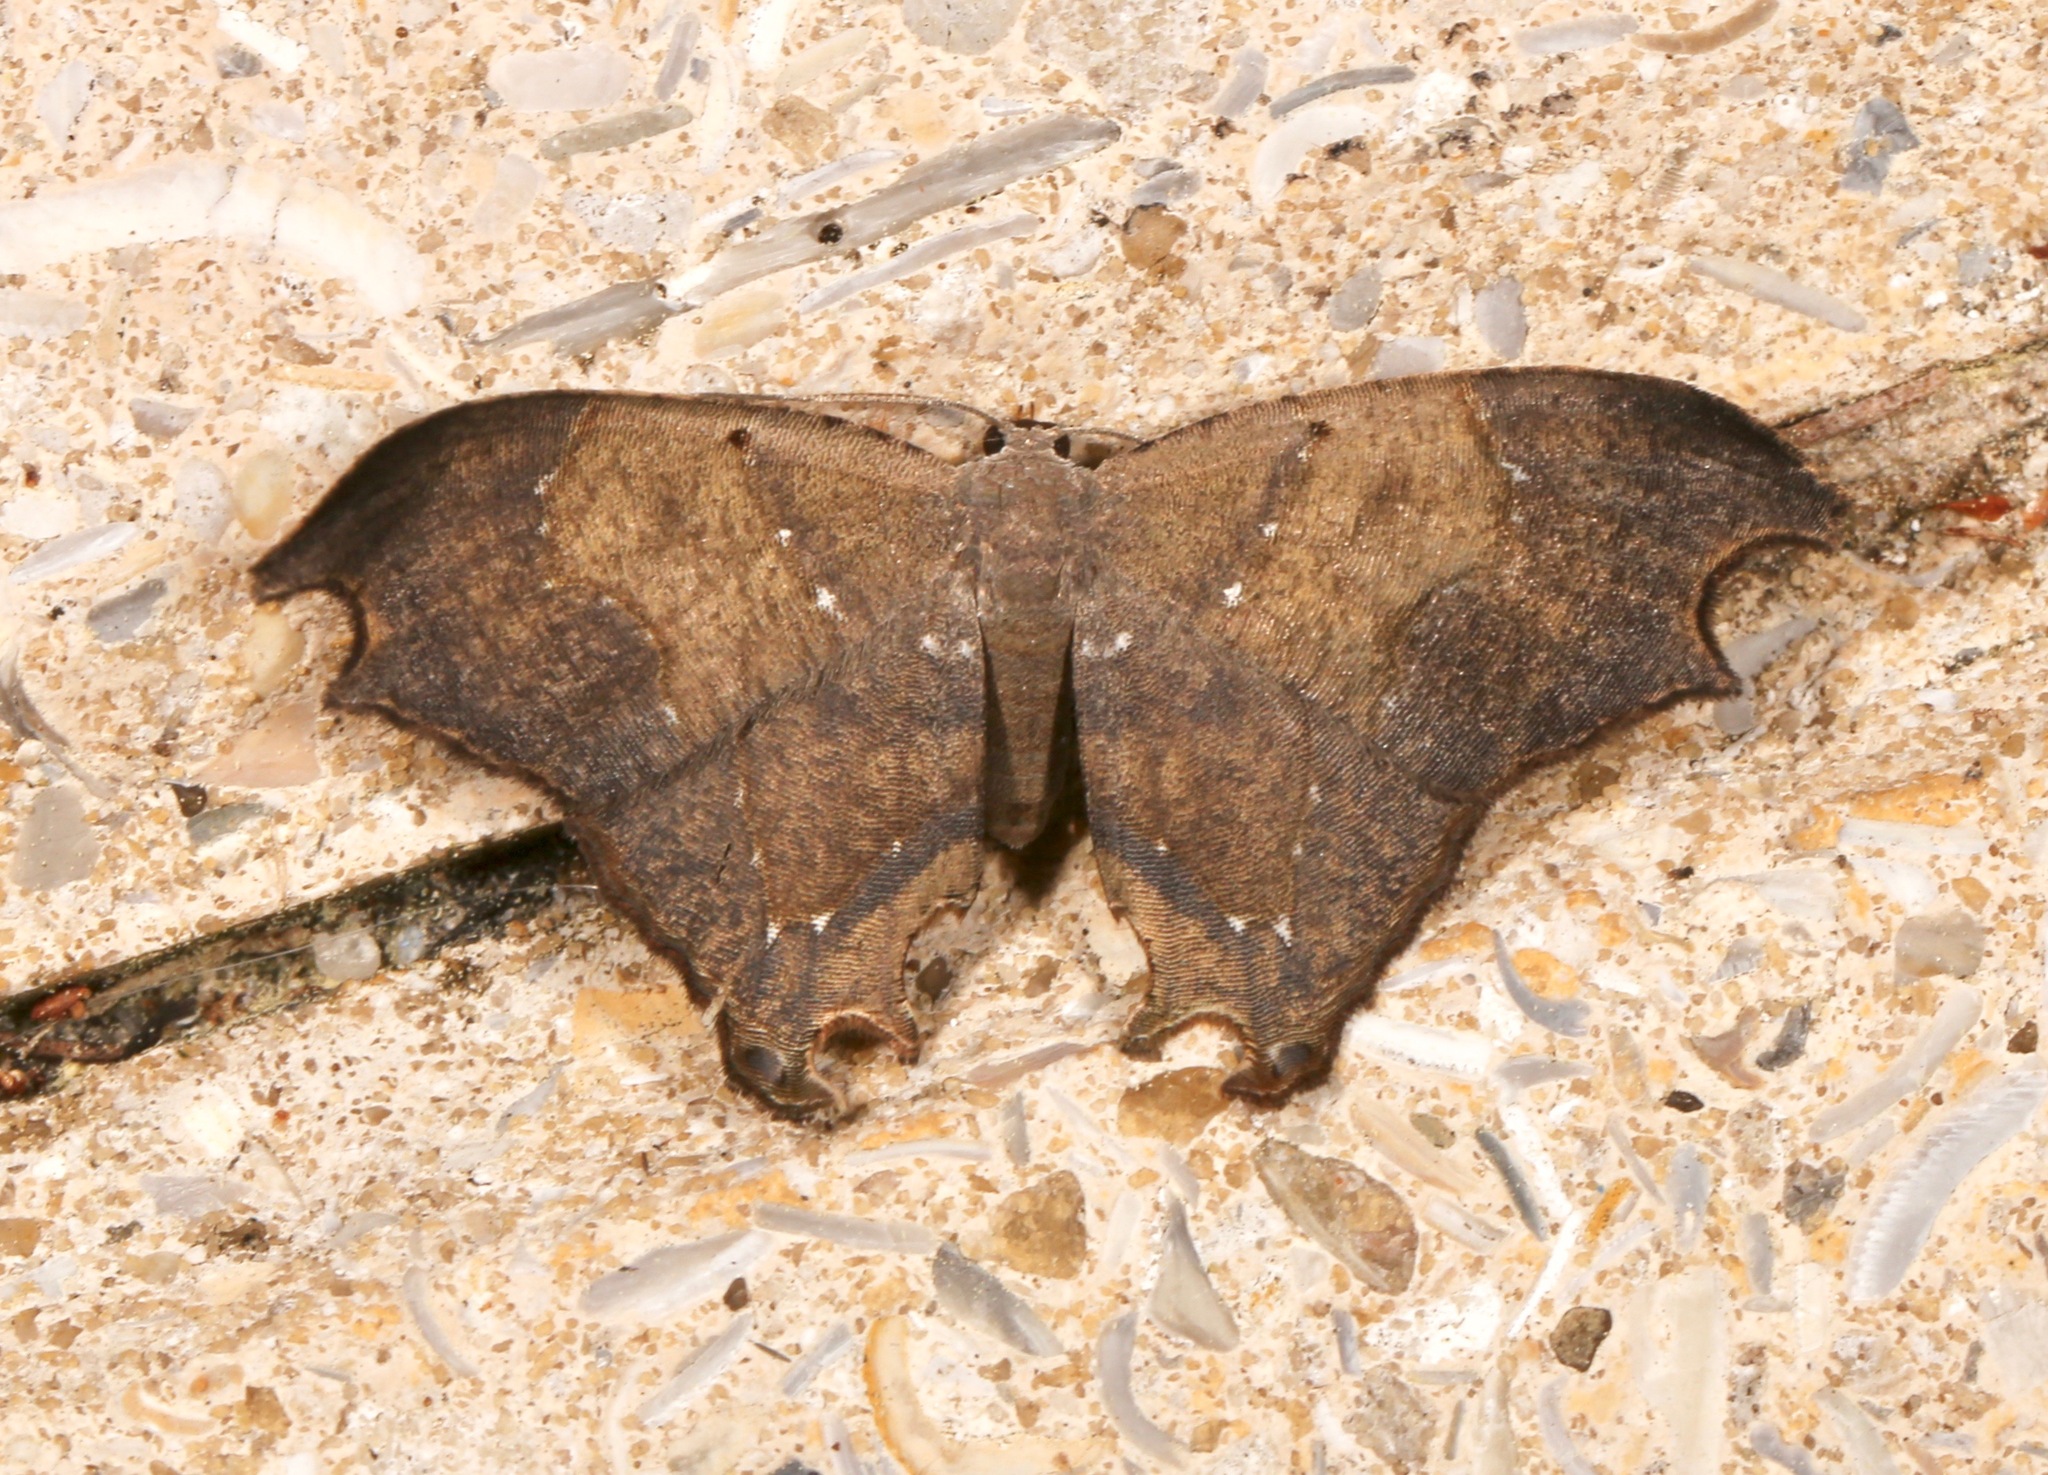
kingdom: Animalia
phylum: Arthropoda
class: Insecta
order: Lepidoptera
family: Uraniidae
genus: Trotorhombia
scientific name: Trotorhombia metachromata
